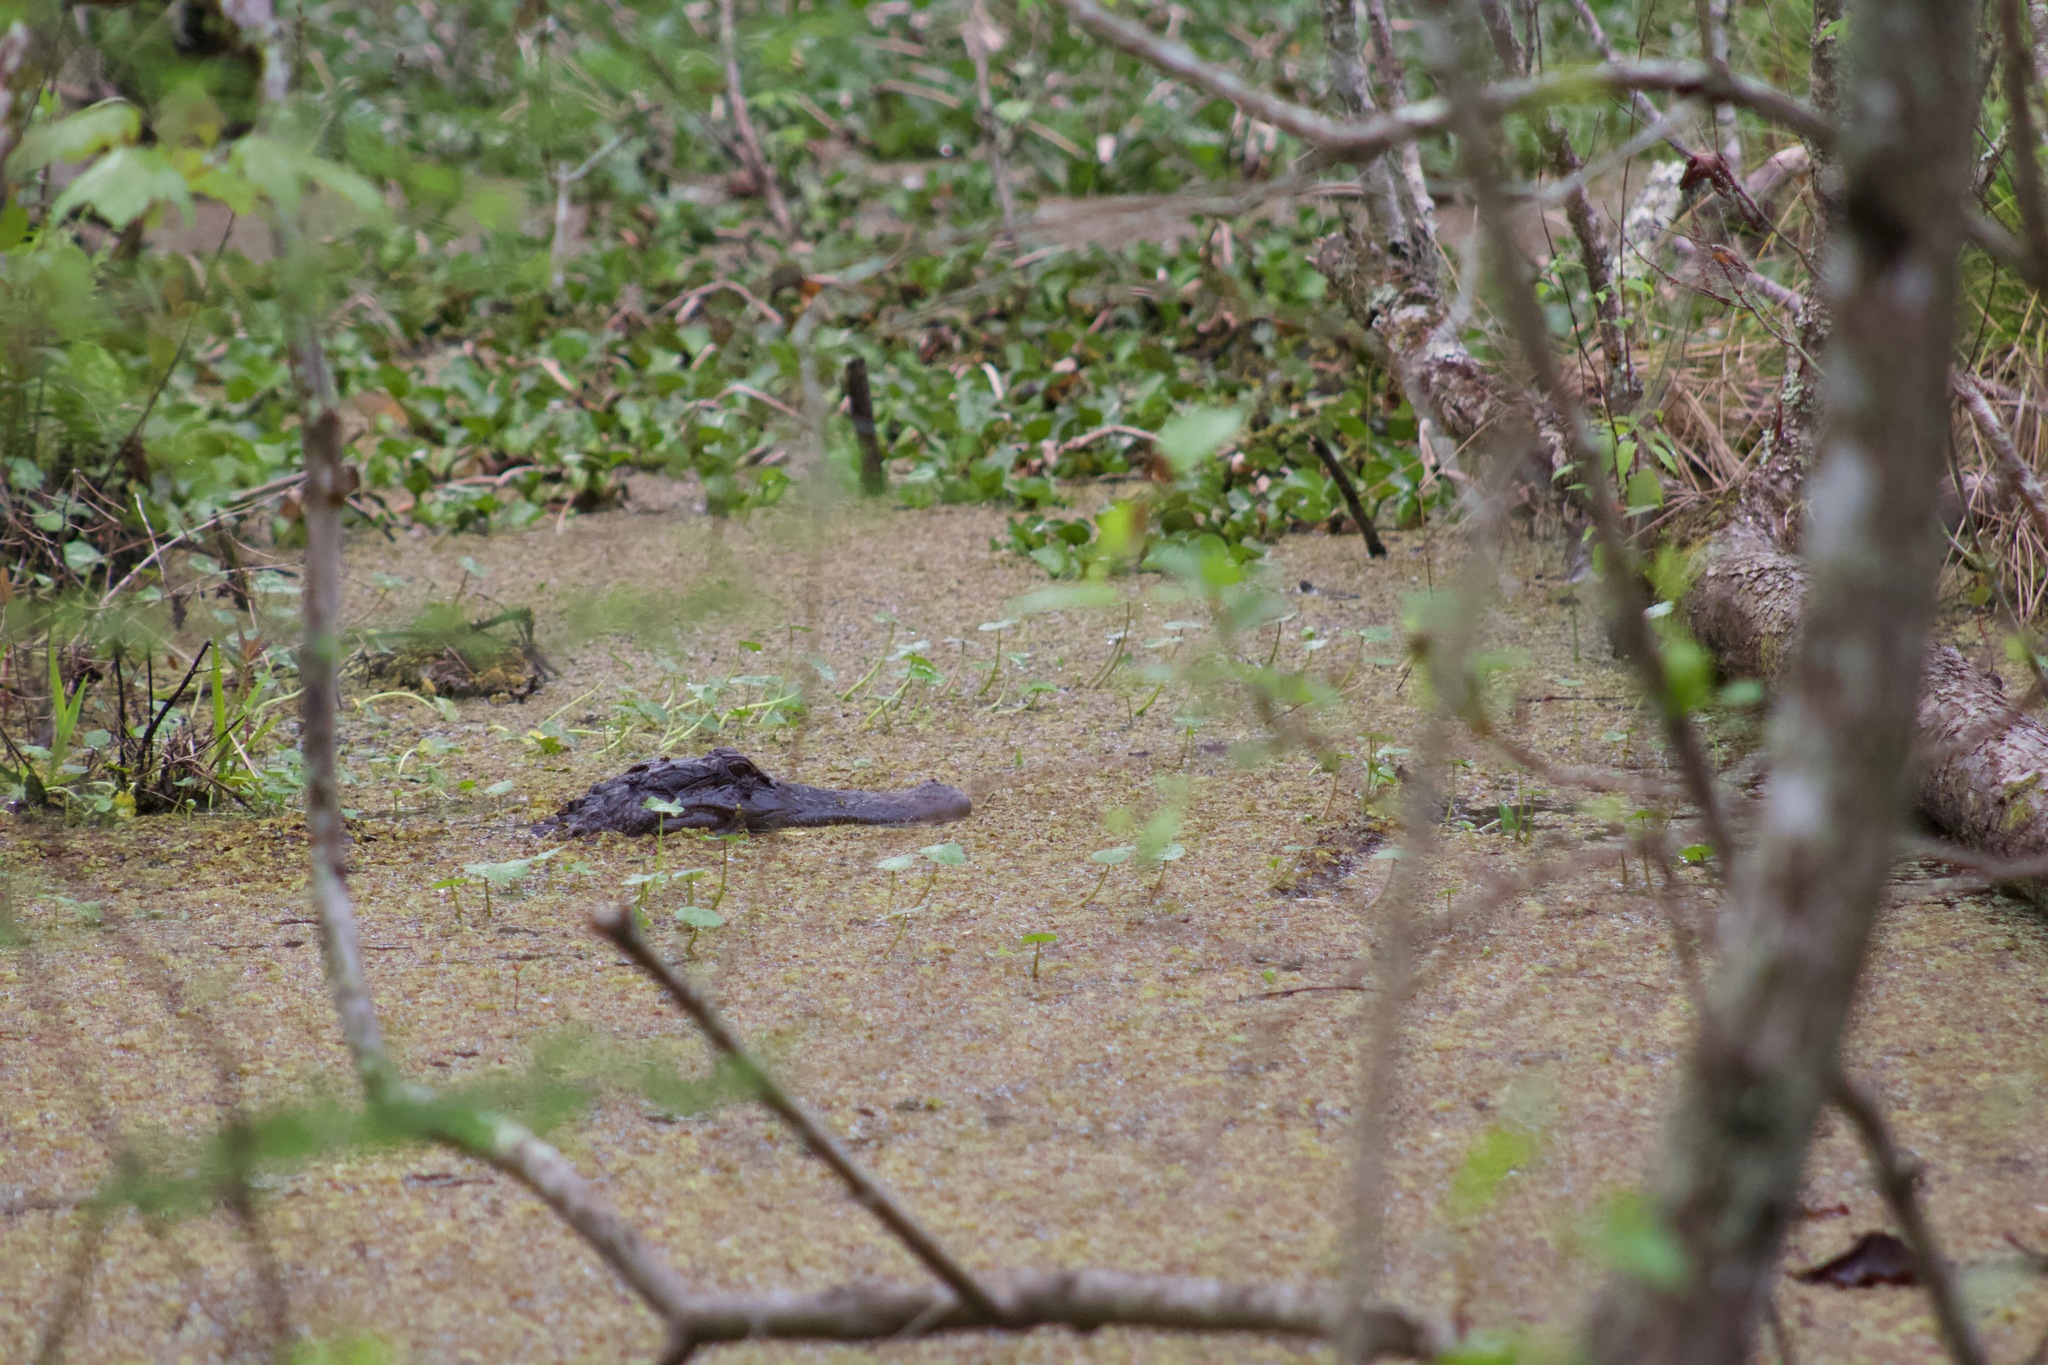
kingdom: Animalia
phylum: Chordata
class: Crocodylia
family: Alligatoridae
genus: Alligator
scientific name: Alligator mississippiensis
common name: American alligator
